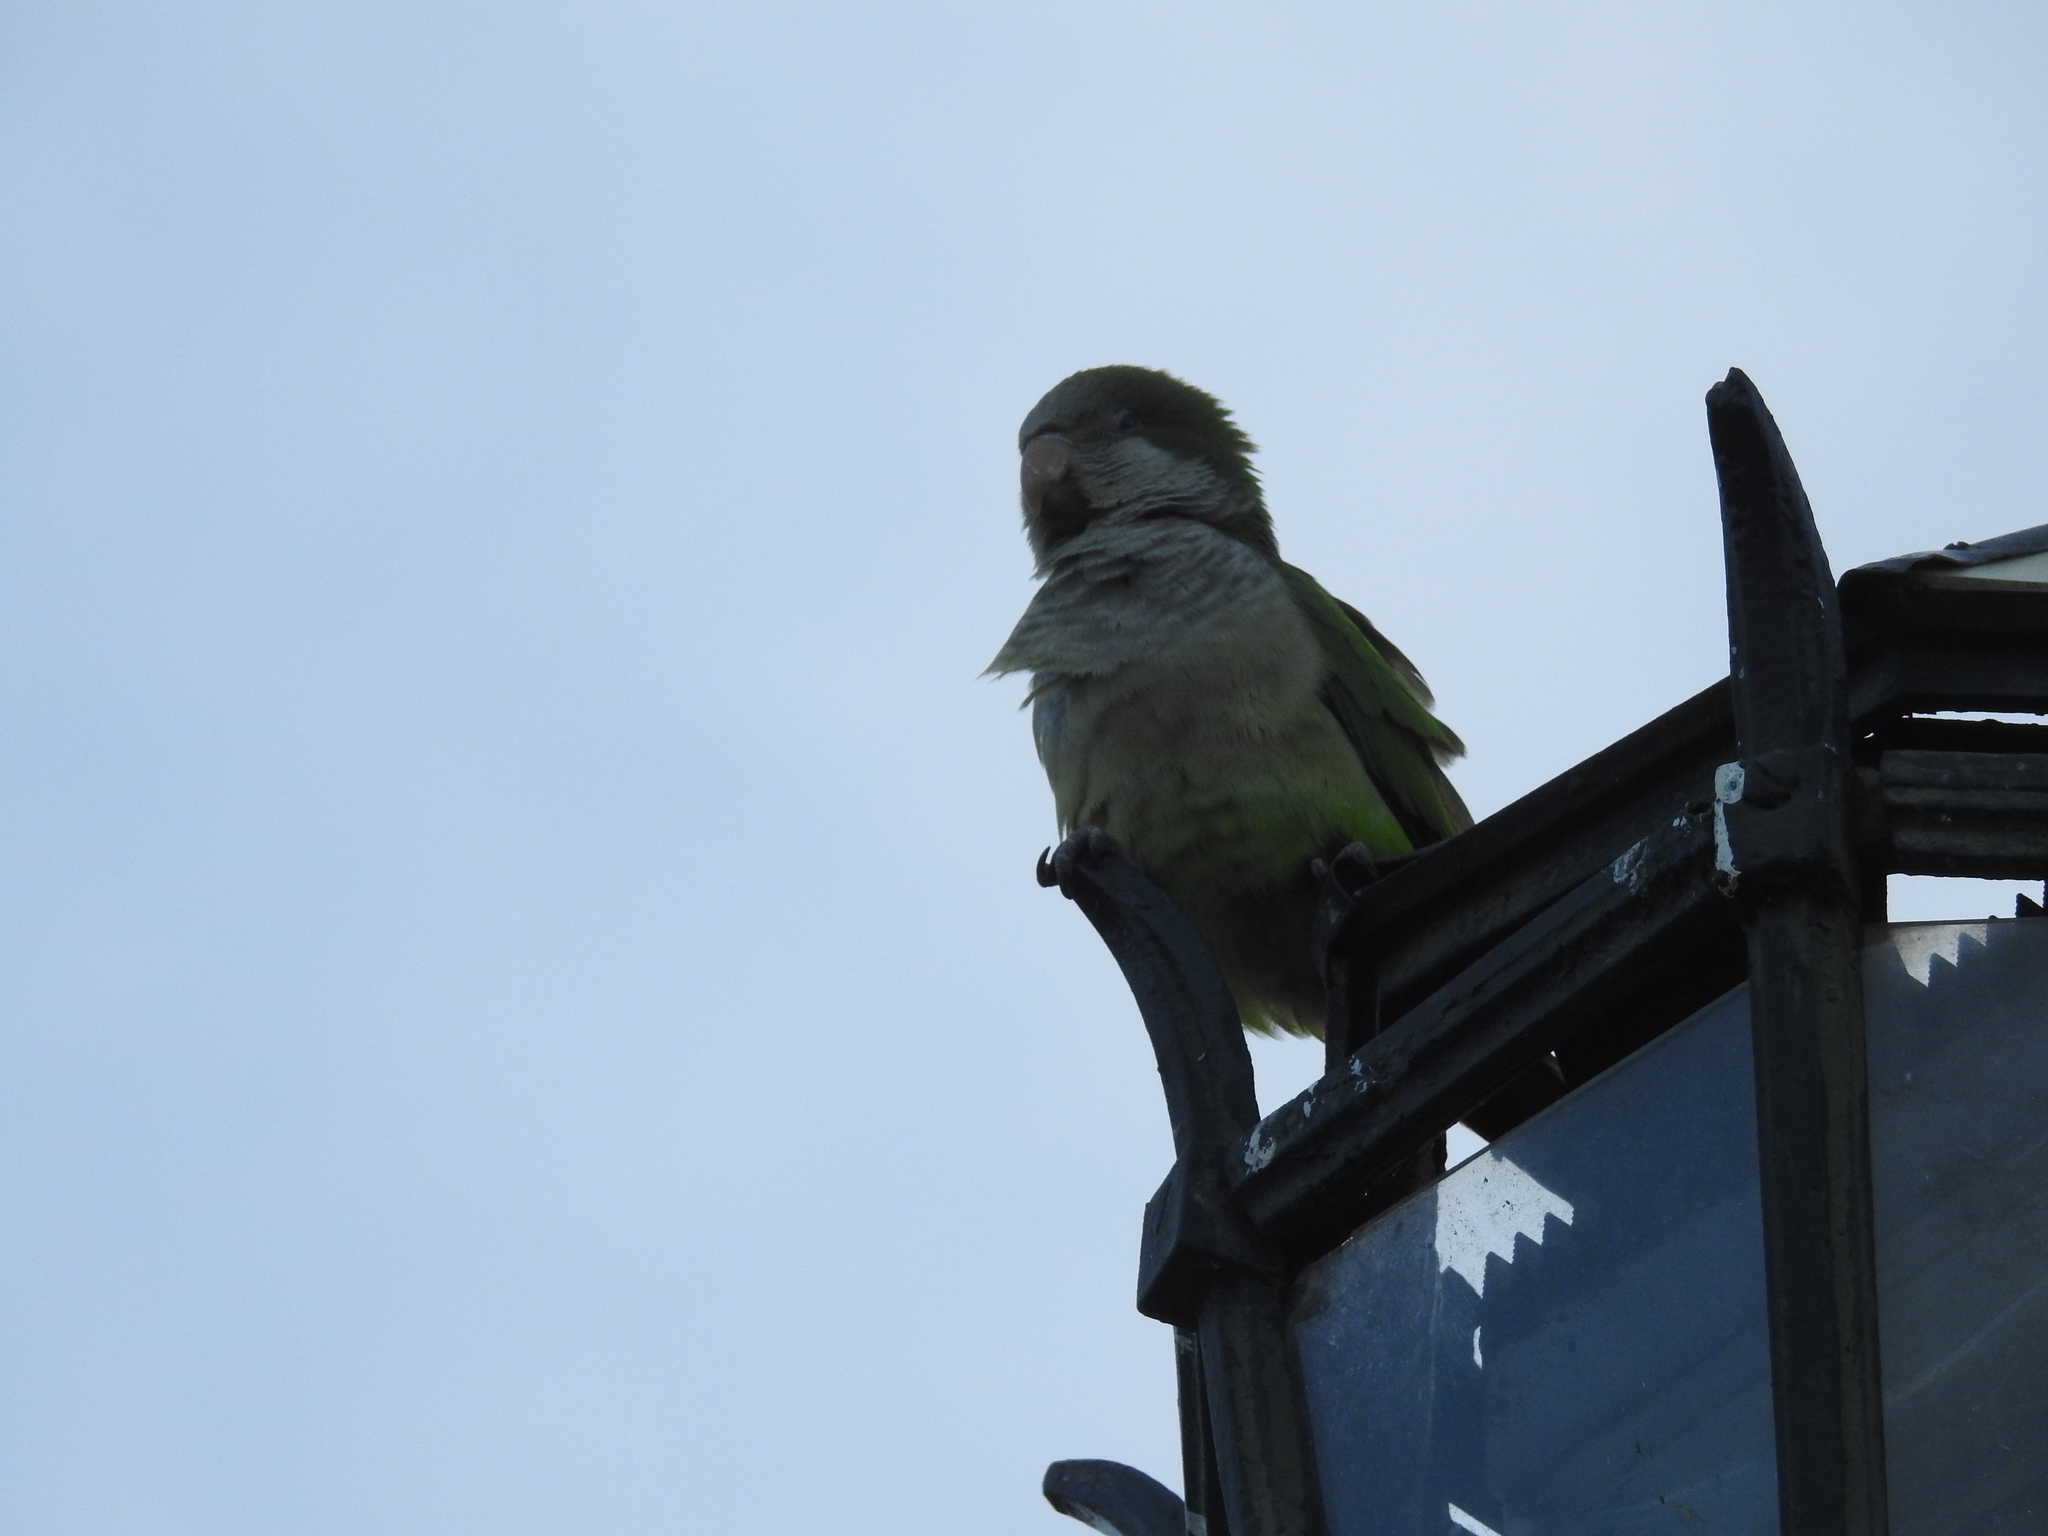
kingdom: Animalia
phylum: Chordata
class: Aves
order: Psittaciformes
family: Psittacidae
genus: Myiopsitta
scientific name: Myiopsitta monachus
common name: Monk parakeet
